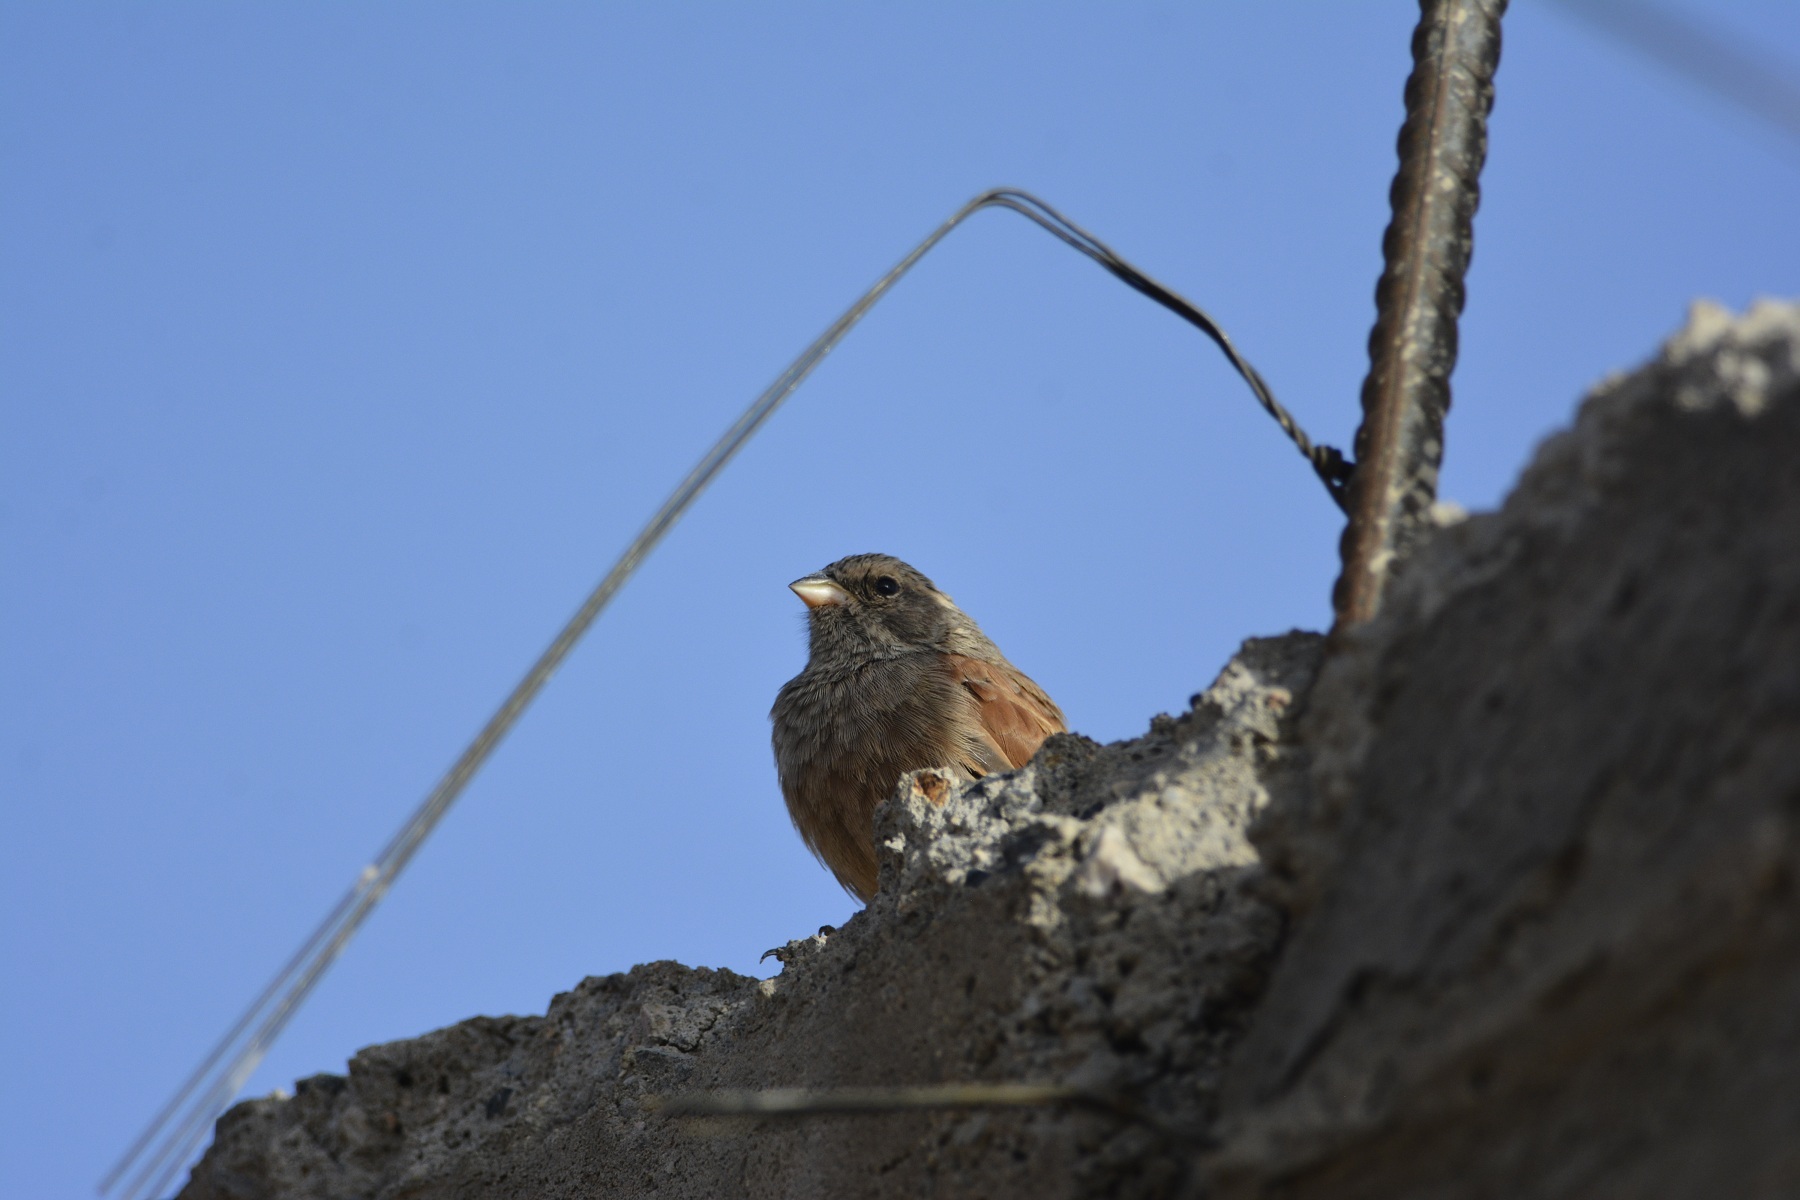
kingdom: Animalia
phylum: Chordata
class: Aves
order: Passeriformes
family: Emberizidae
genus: Emberiza
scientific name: Emberiza sahari
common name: House bunting
